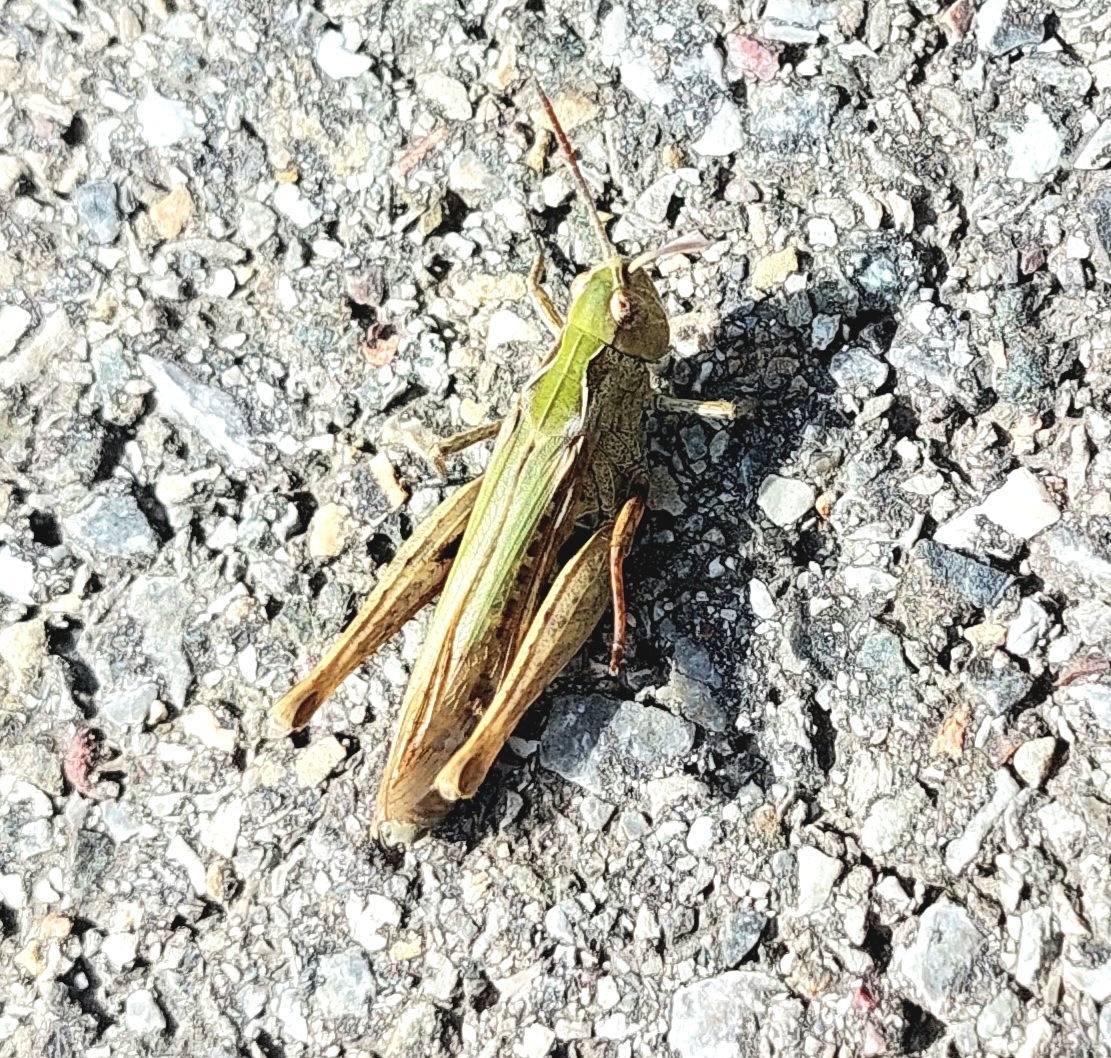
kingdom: Animalia
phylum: Arthropoda
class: Insecta
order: Orthoptera
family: Acrididae
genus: Chorthippus
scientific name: Chorthippus brunneus
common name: Field grasshopper
